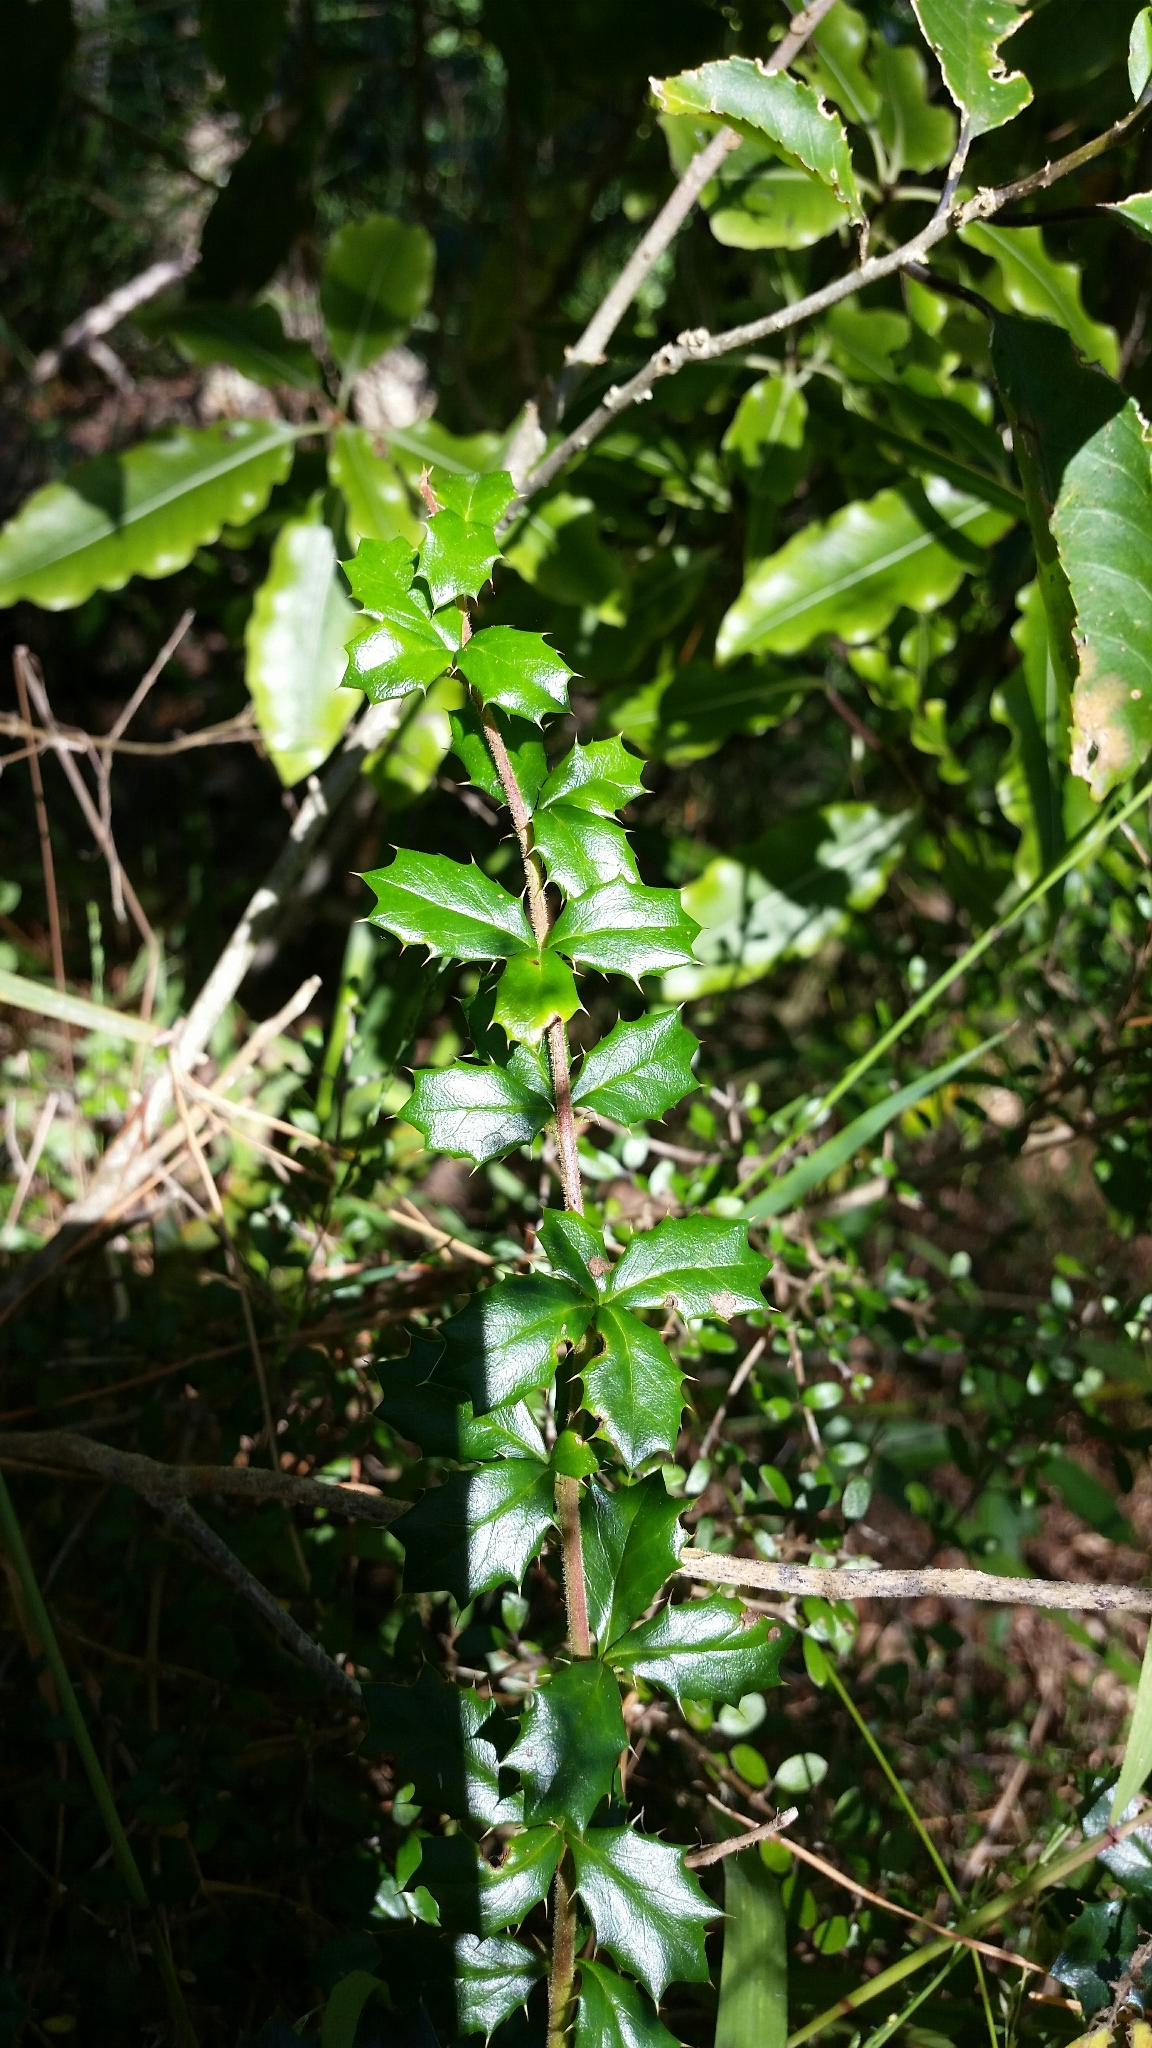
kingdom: Plantae
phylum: Tracheophyta
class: Magnoliopsida
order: Ranunculales
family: Berberidaceae
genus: Berberis
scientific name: Berberis darwinii
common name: Darwin's barberry
